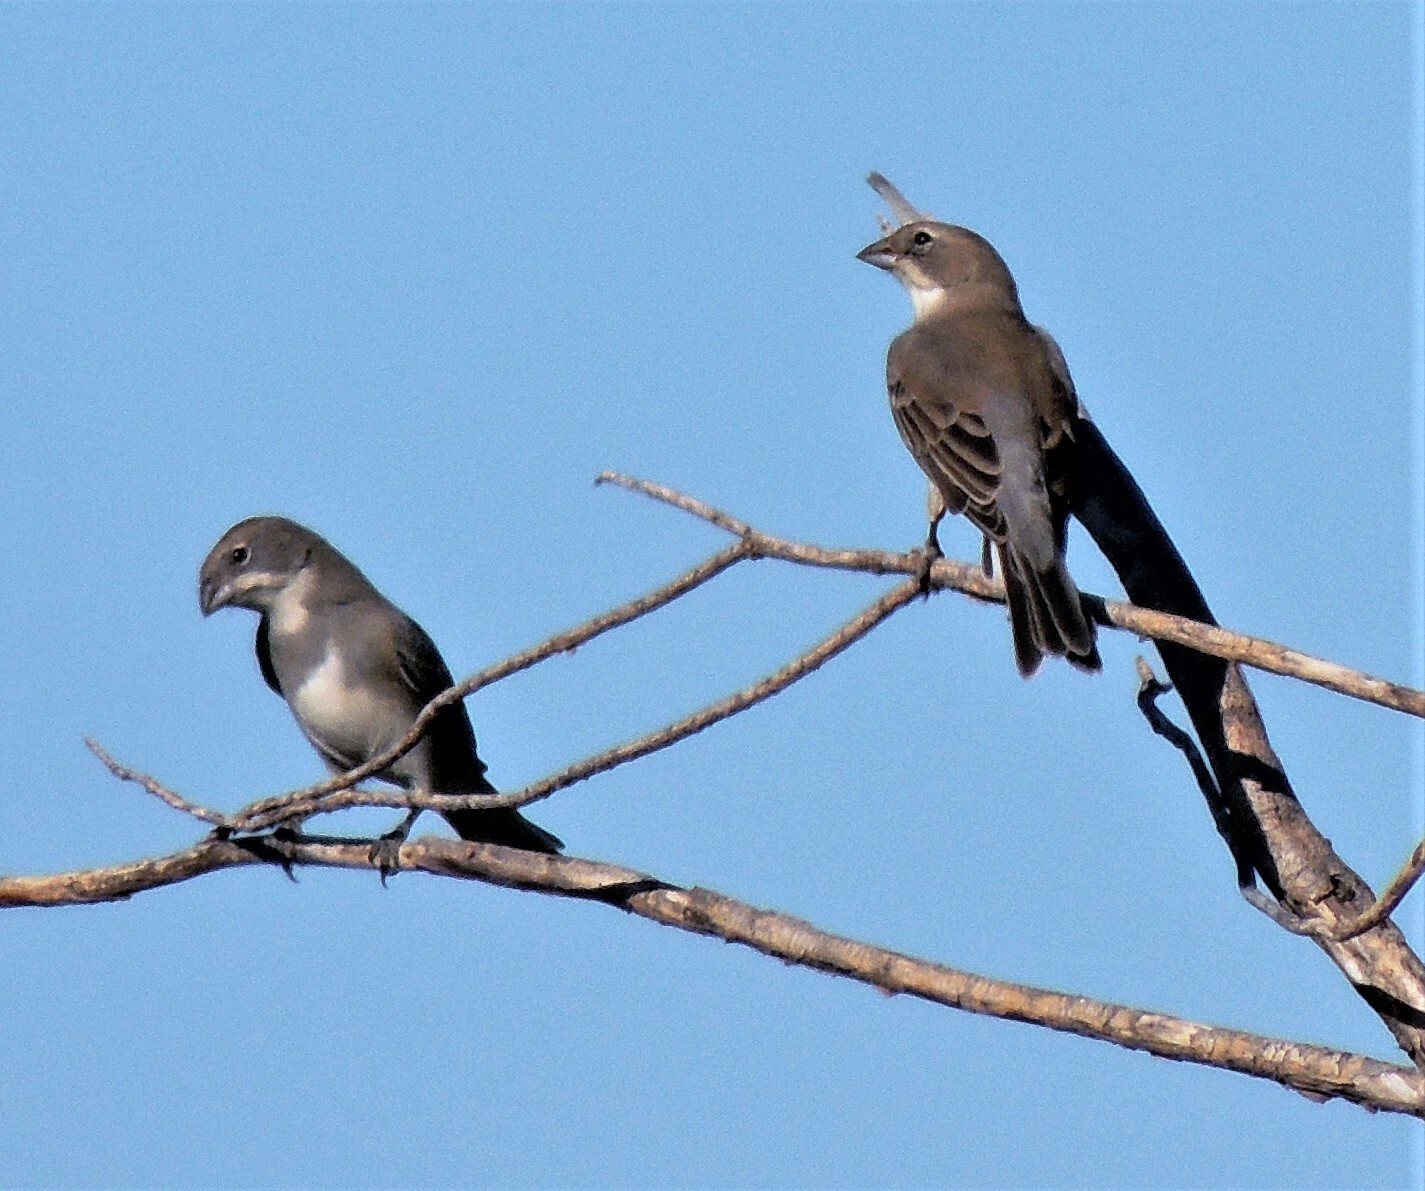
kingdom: Animalia
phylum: Chordata
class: Aves
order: Passeriformes
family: Thraupidae
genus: Diuca
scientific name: Diuca diuca
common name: Common diuca finch
